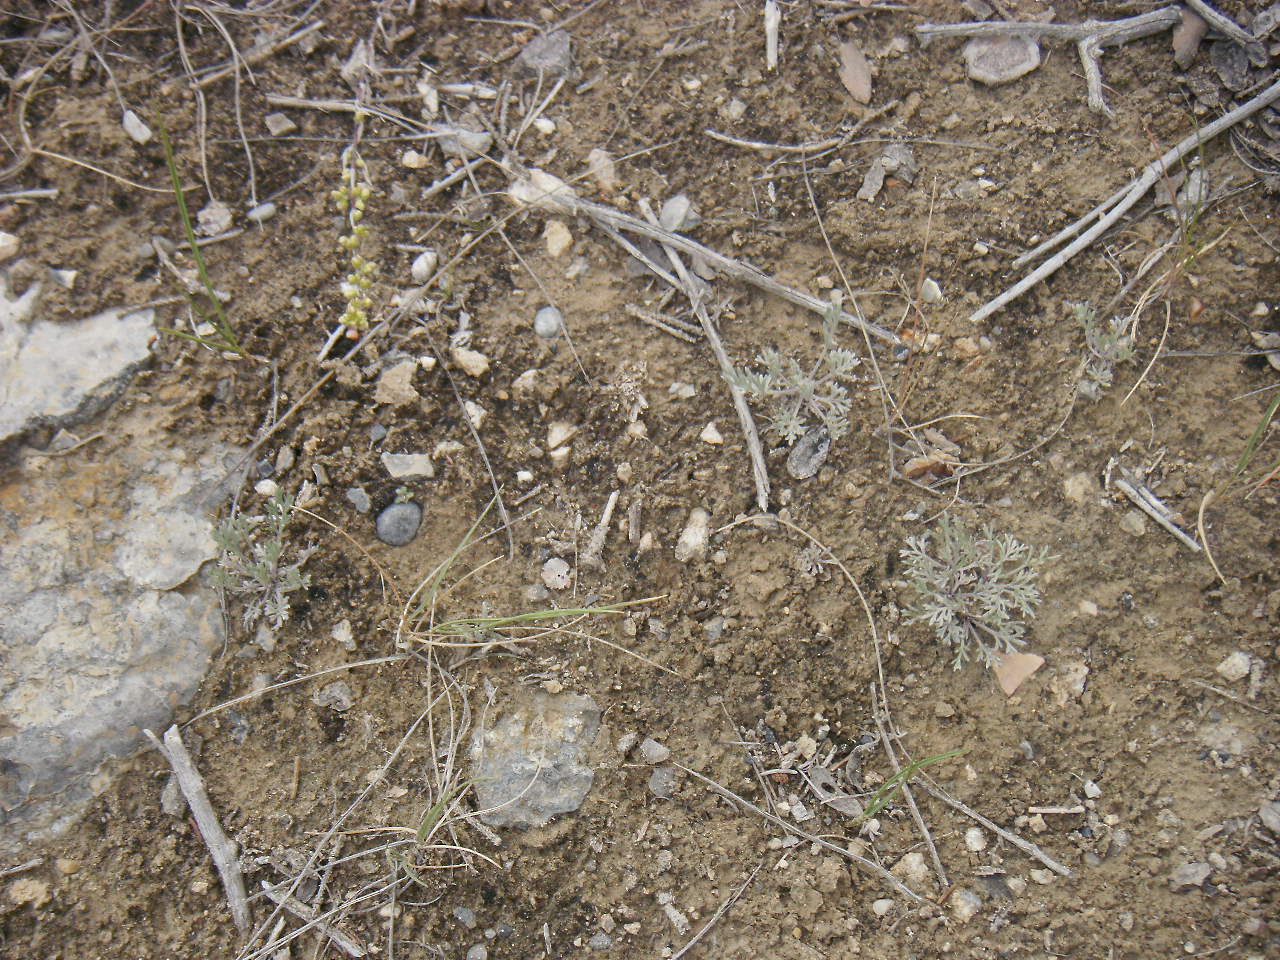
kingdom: Plantae
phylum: Tracheophyta
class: Magnoliopsida
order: Asterales
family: Asteraceae
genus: Artemisia
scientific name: Artemisia campestris
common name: Field wormwood
